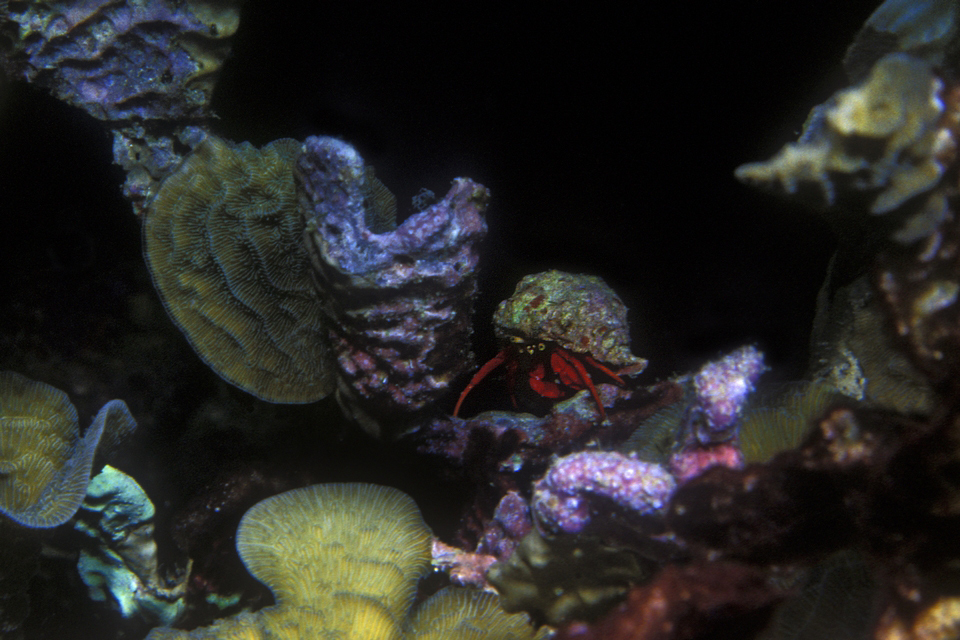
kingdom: Animalia
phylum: Arthropoda
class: Malacostraca
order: Decapoda
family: Diogenidae
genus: Paguristes
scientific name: Paguristes cadenati
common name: Red reef hermit
